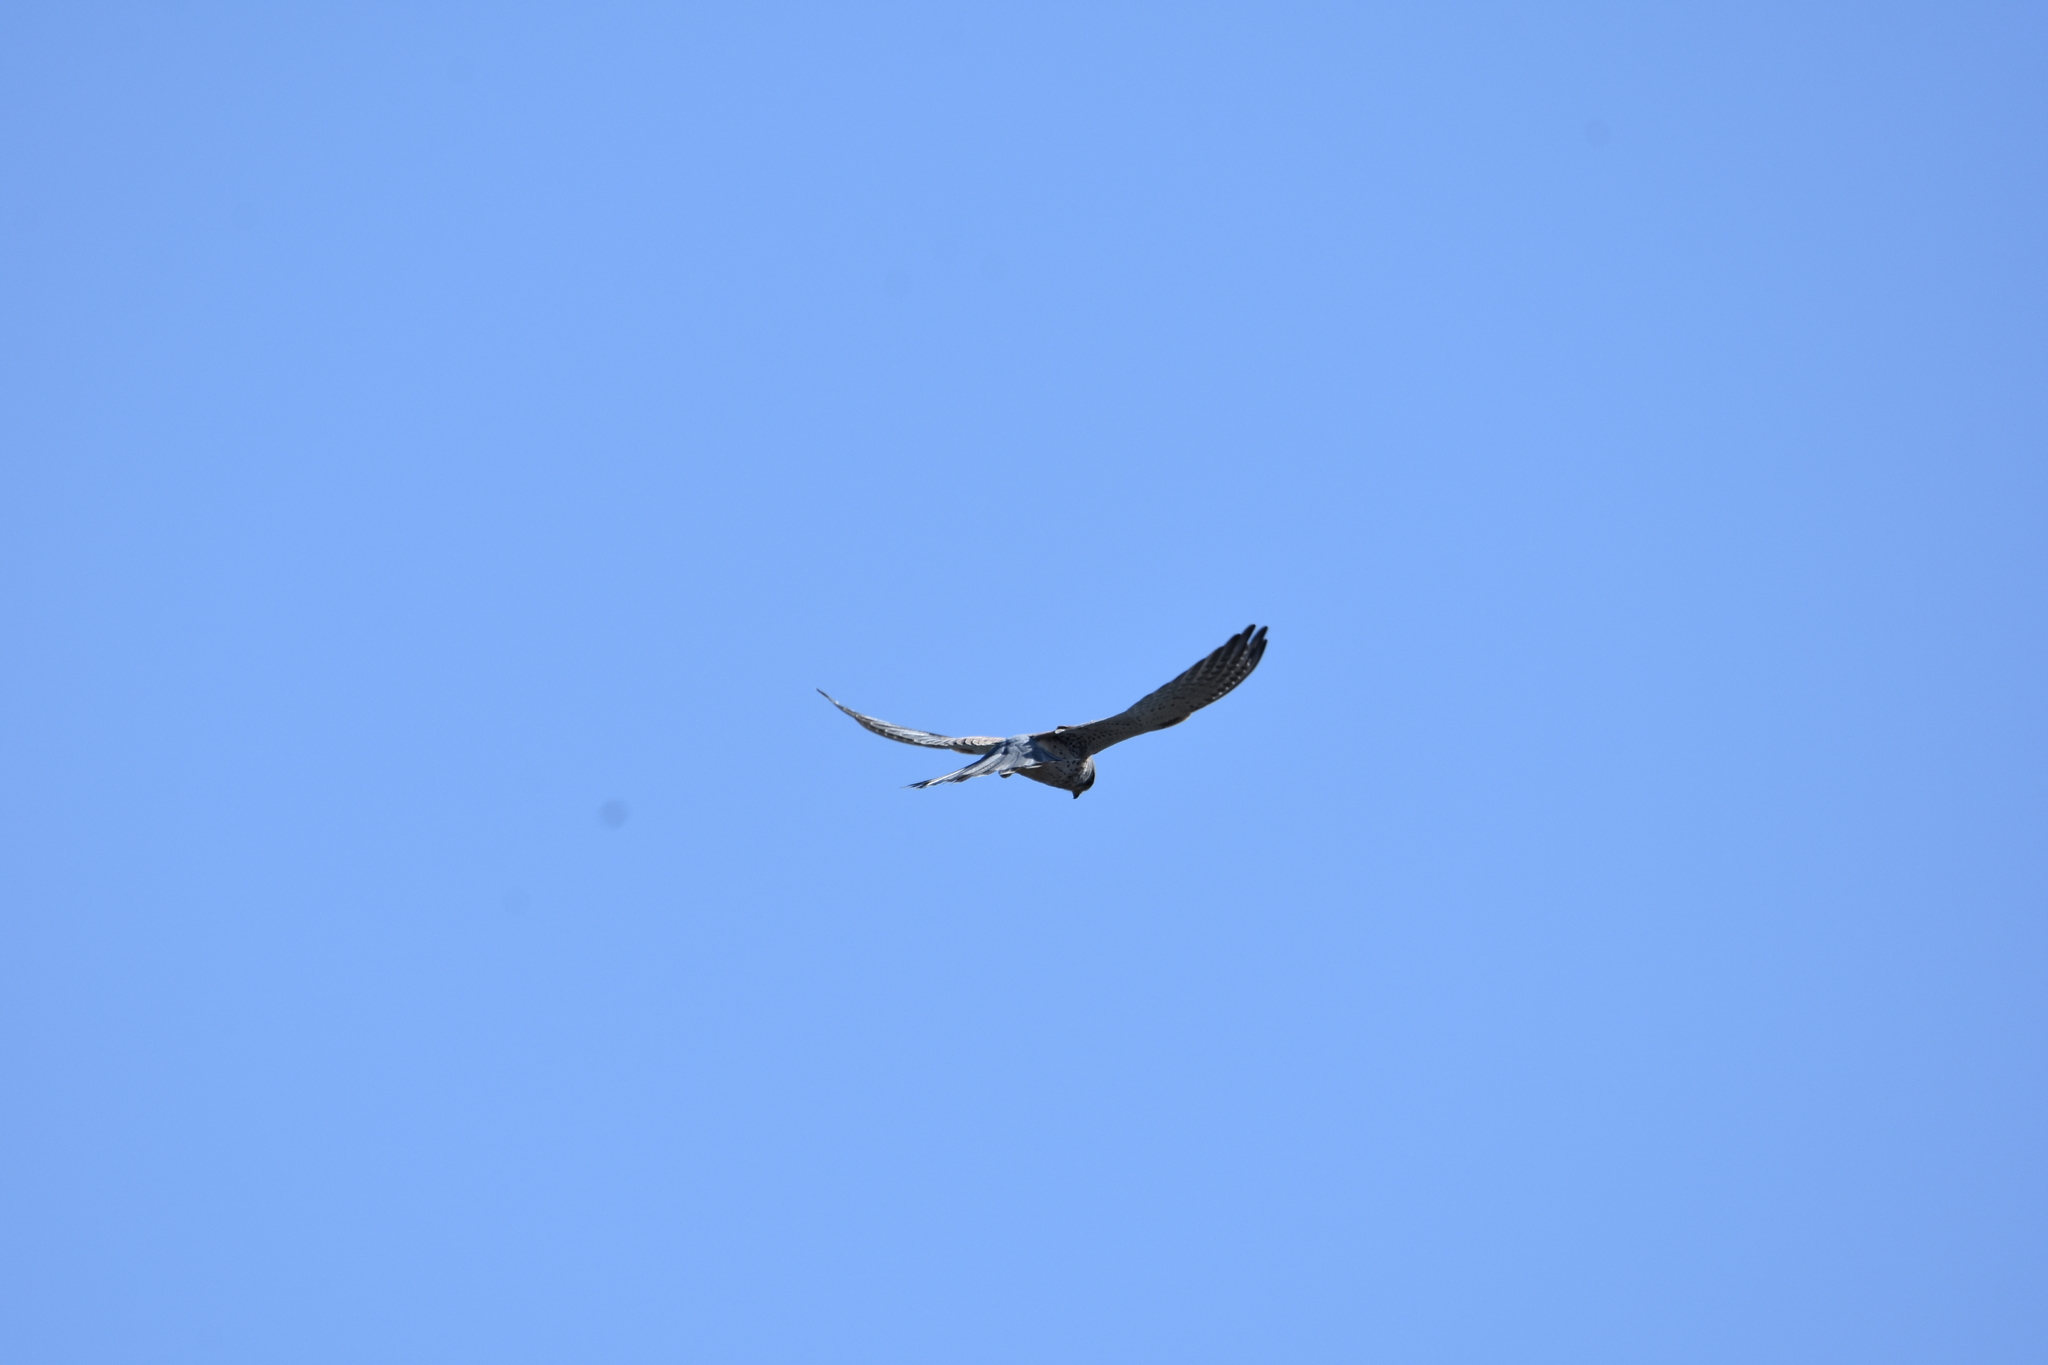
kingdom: Animalia
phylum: Chordata
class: Aves
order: Falconiformes
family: Falconidae
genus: Falco
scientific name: Falco tinnunculus
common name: Common kestrel
